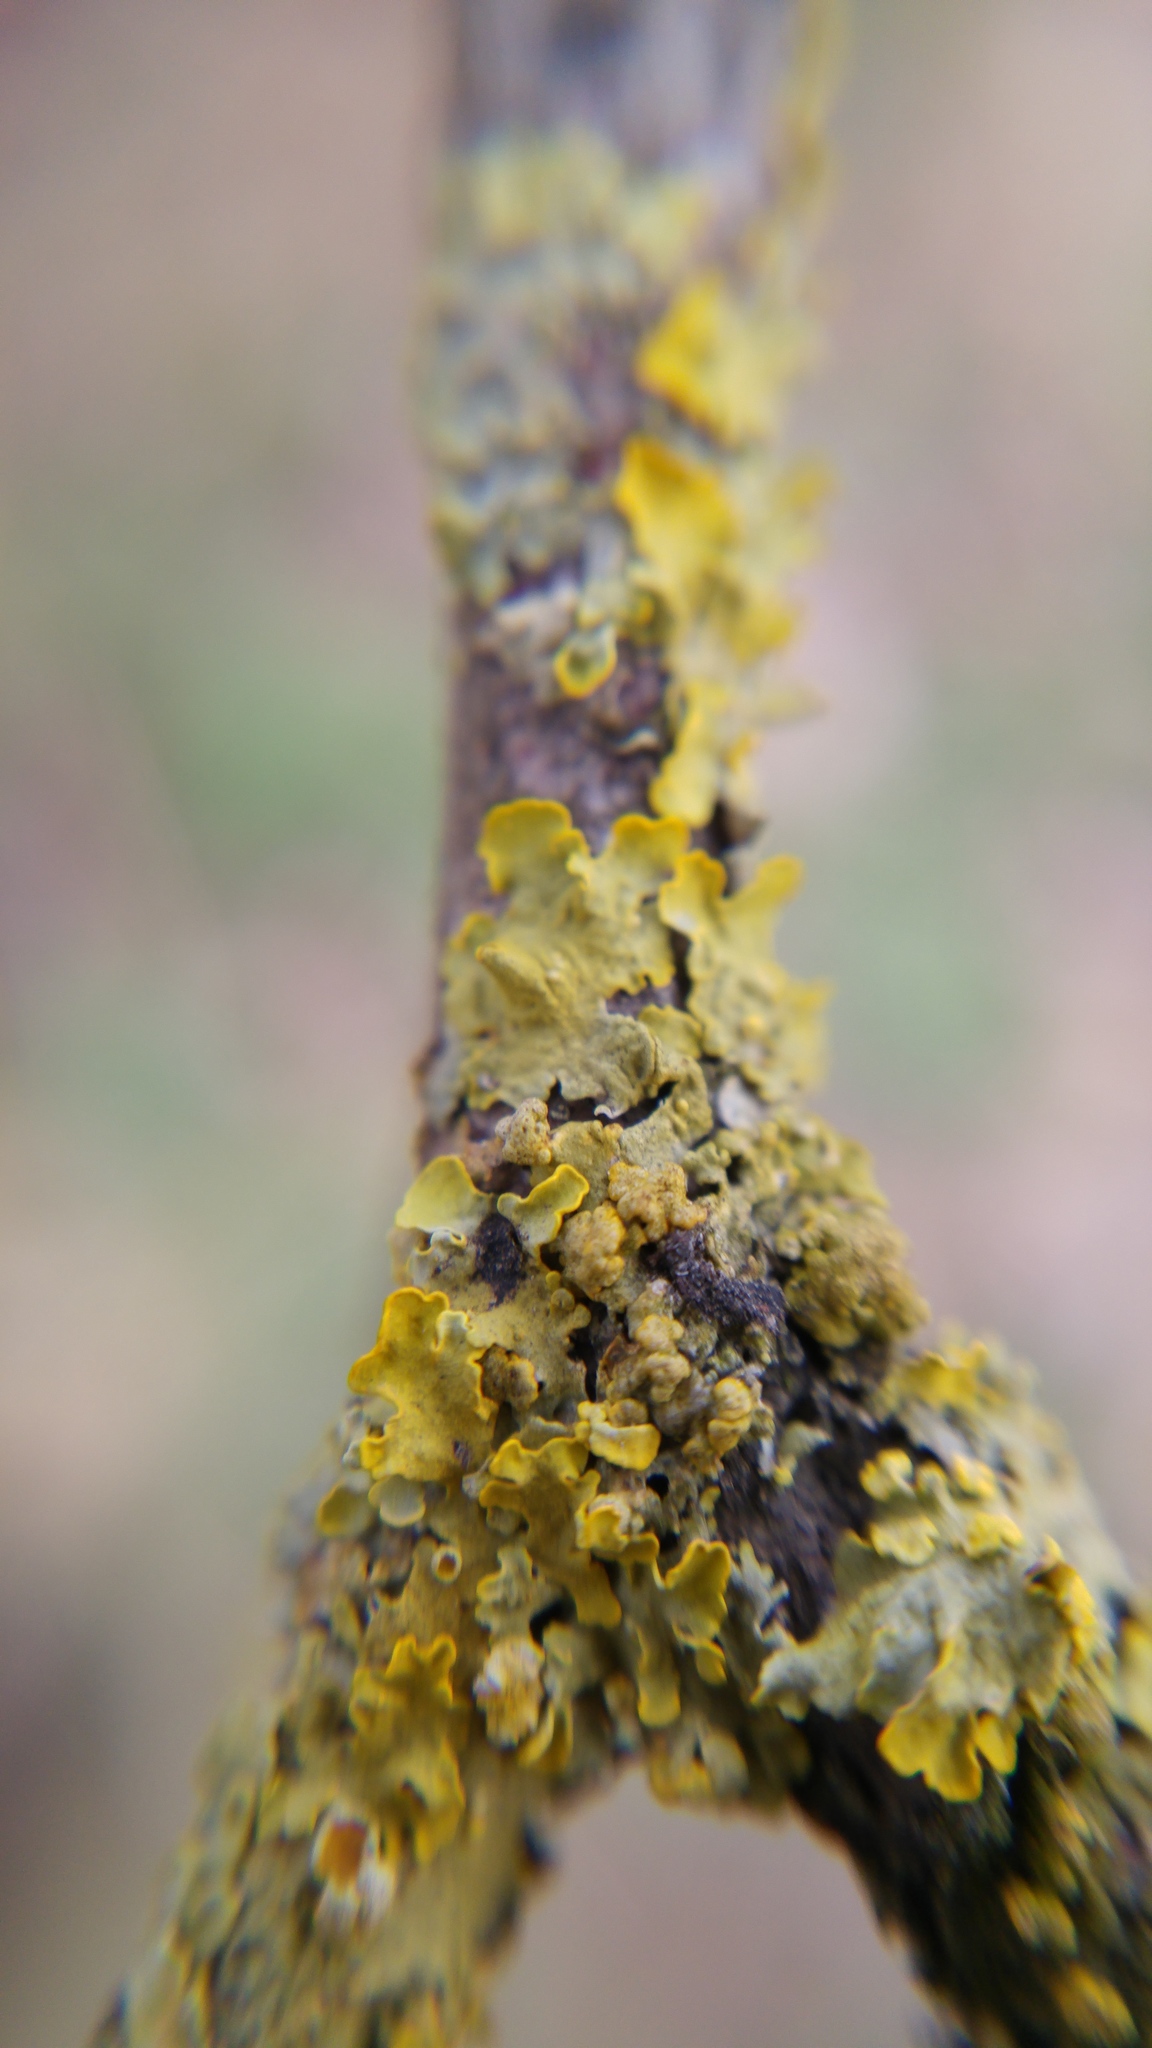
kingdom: Fungi
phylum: Ascomycota
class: Lecanoromycetes
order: Teloschistales
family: Teloschistaceae
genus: Xanthoria
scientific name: Xanthoria parietina
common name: Common orange lichen
